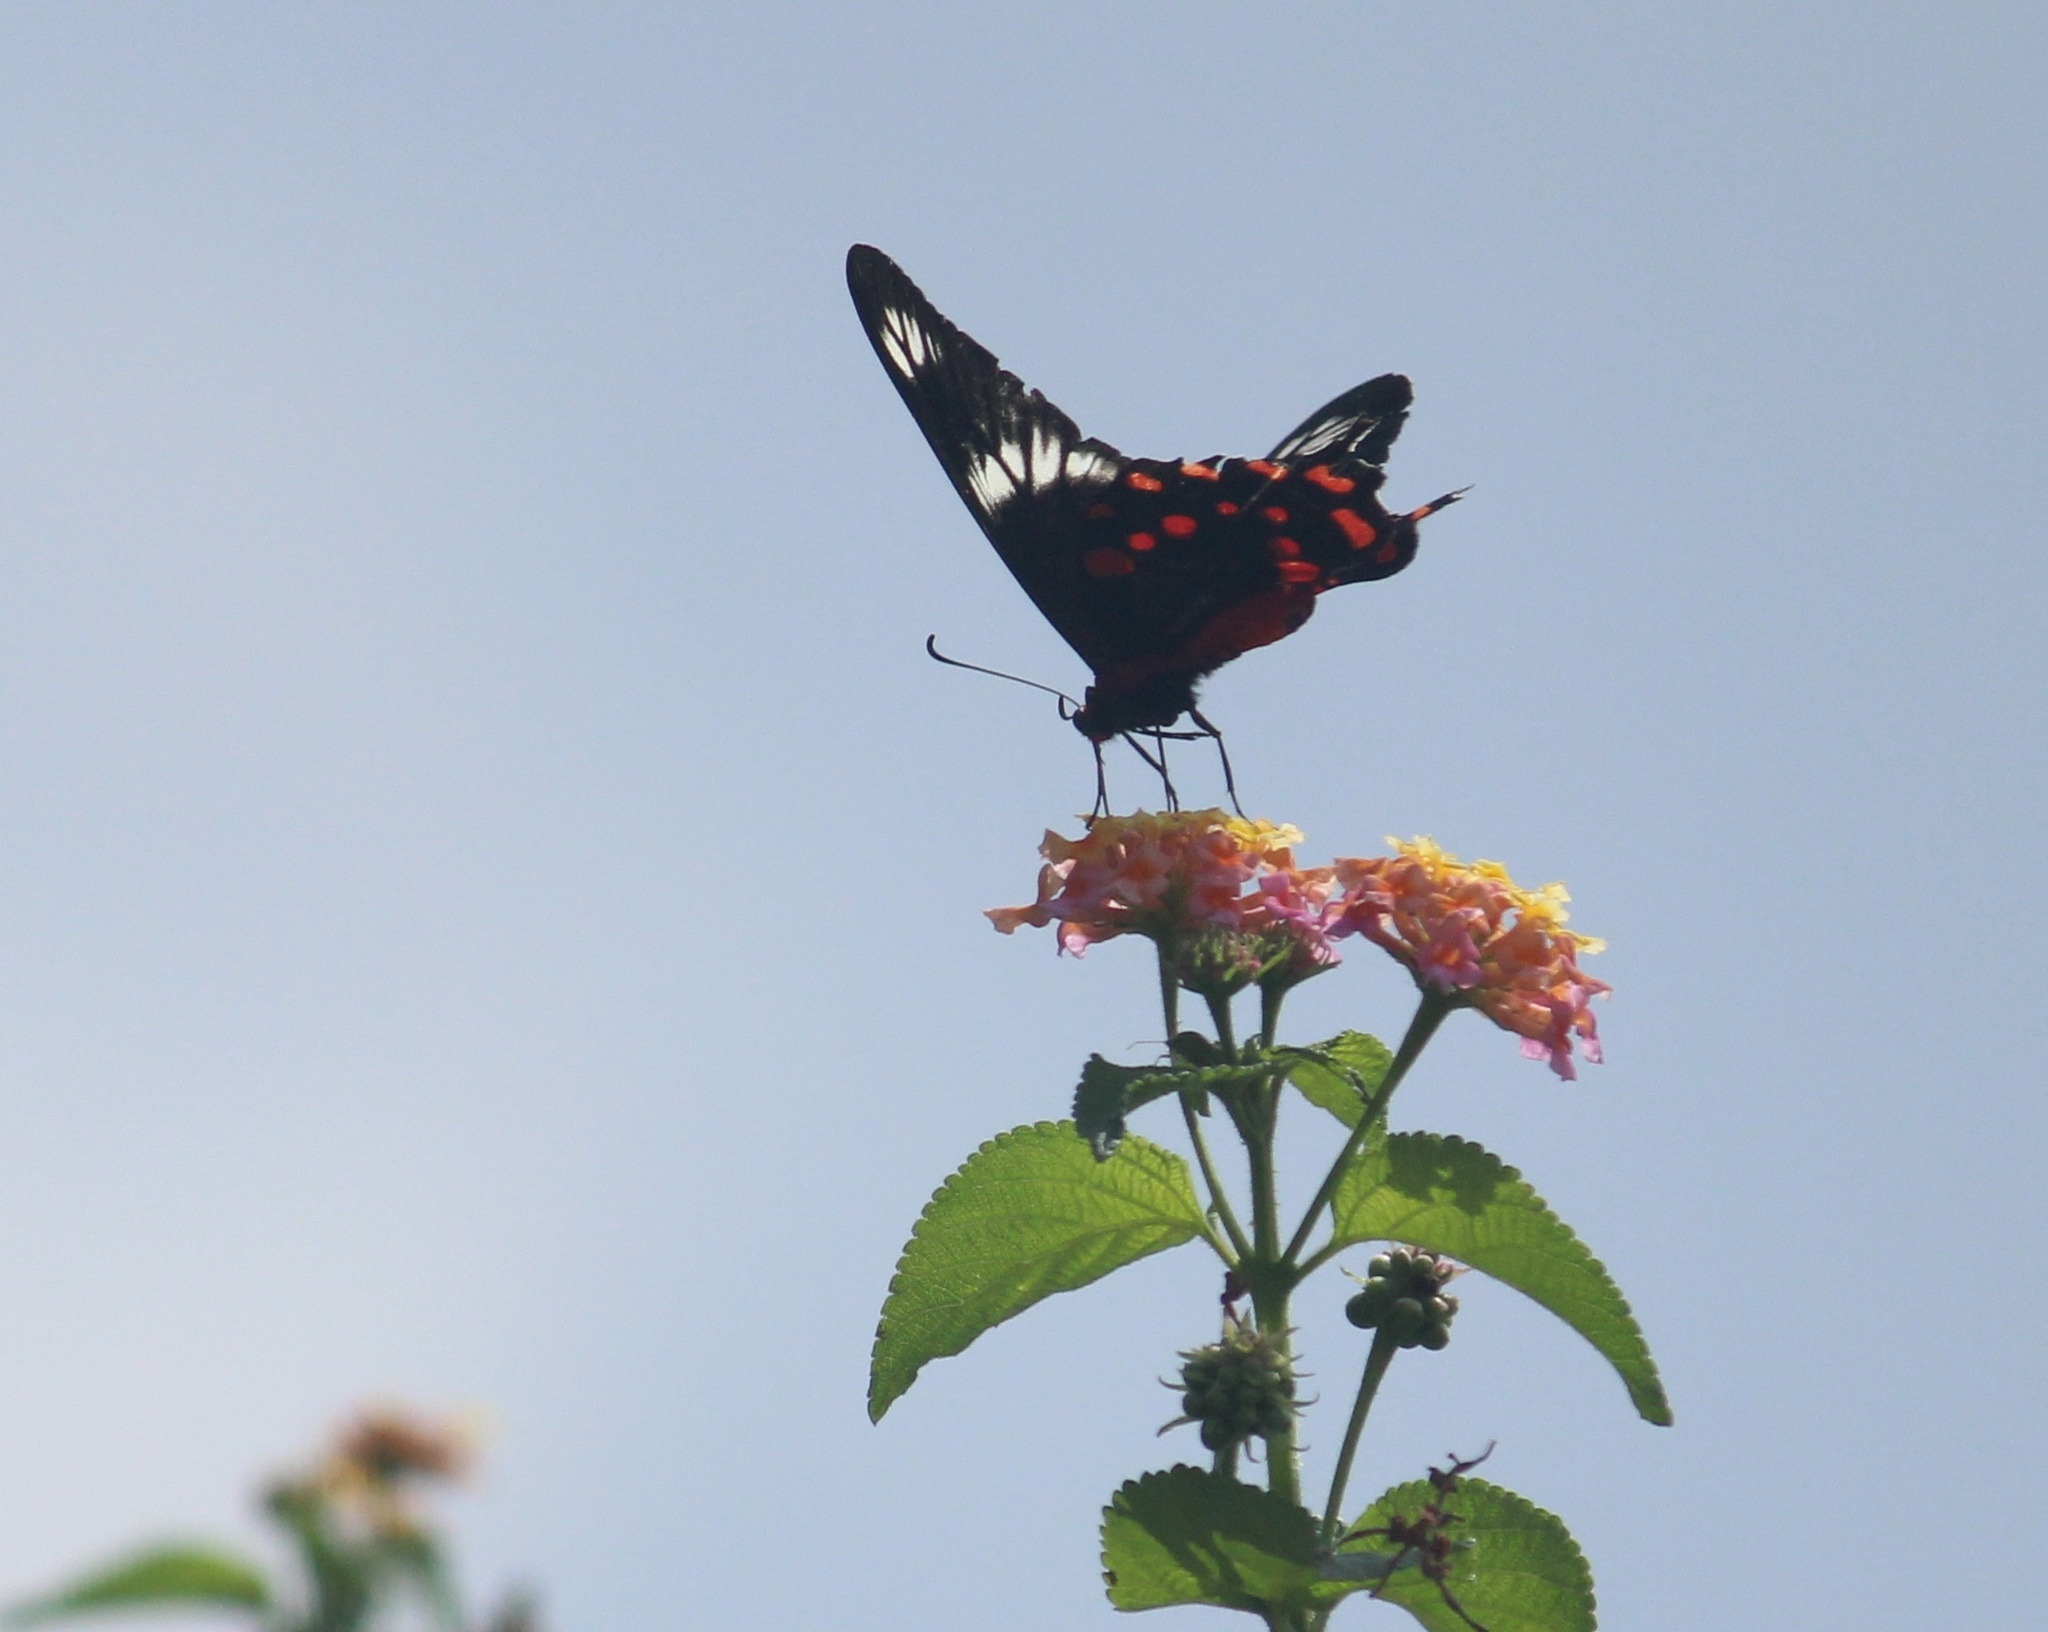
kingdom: Animalia
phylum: Arthropoda
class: Insecta
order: Lepidoptera
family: Papilionidae
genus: Pachliopta
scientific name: Pachliopta hector
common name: Crimson rose
